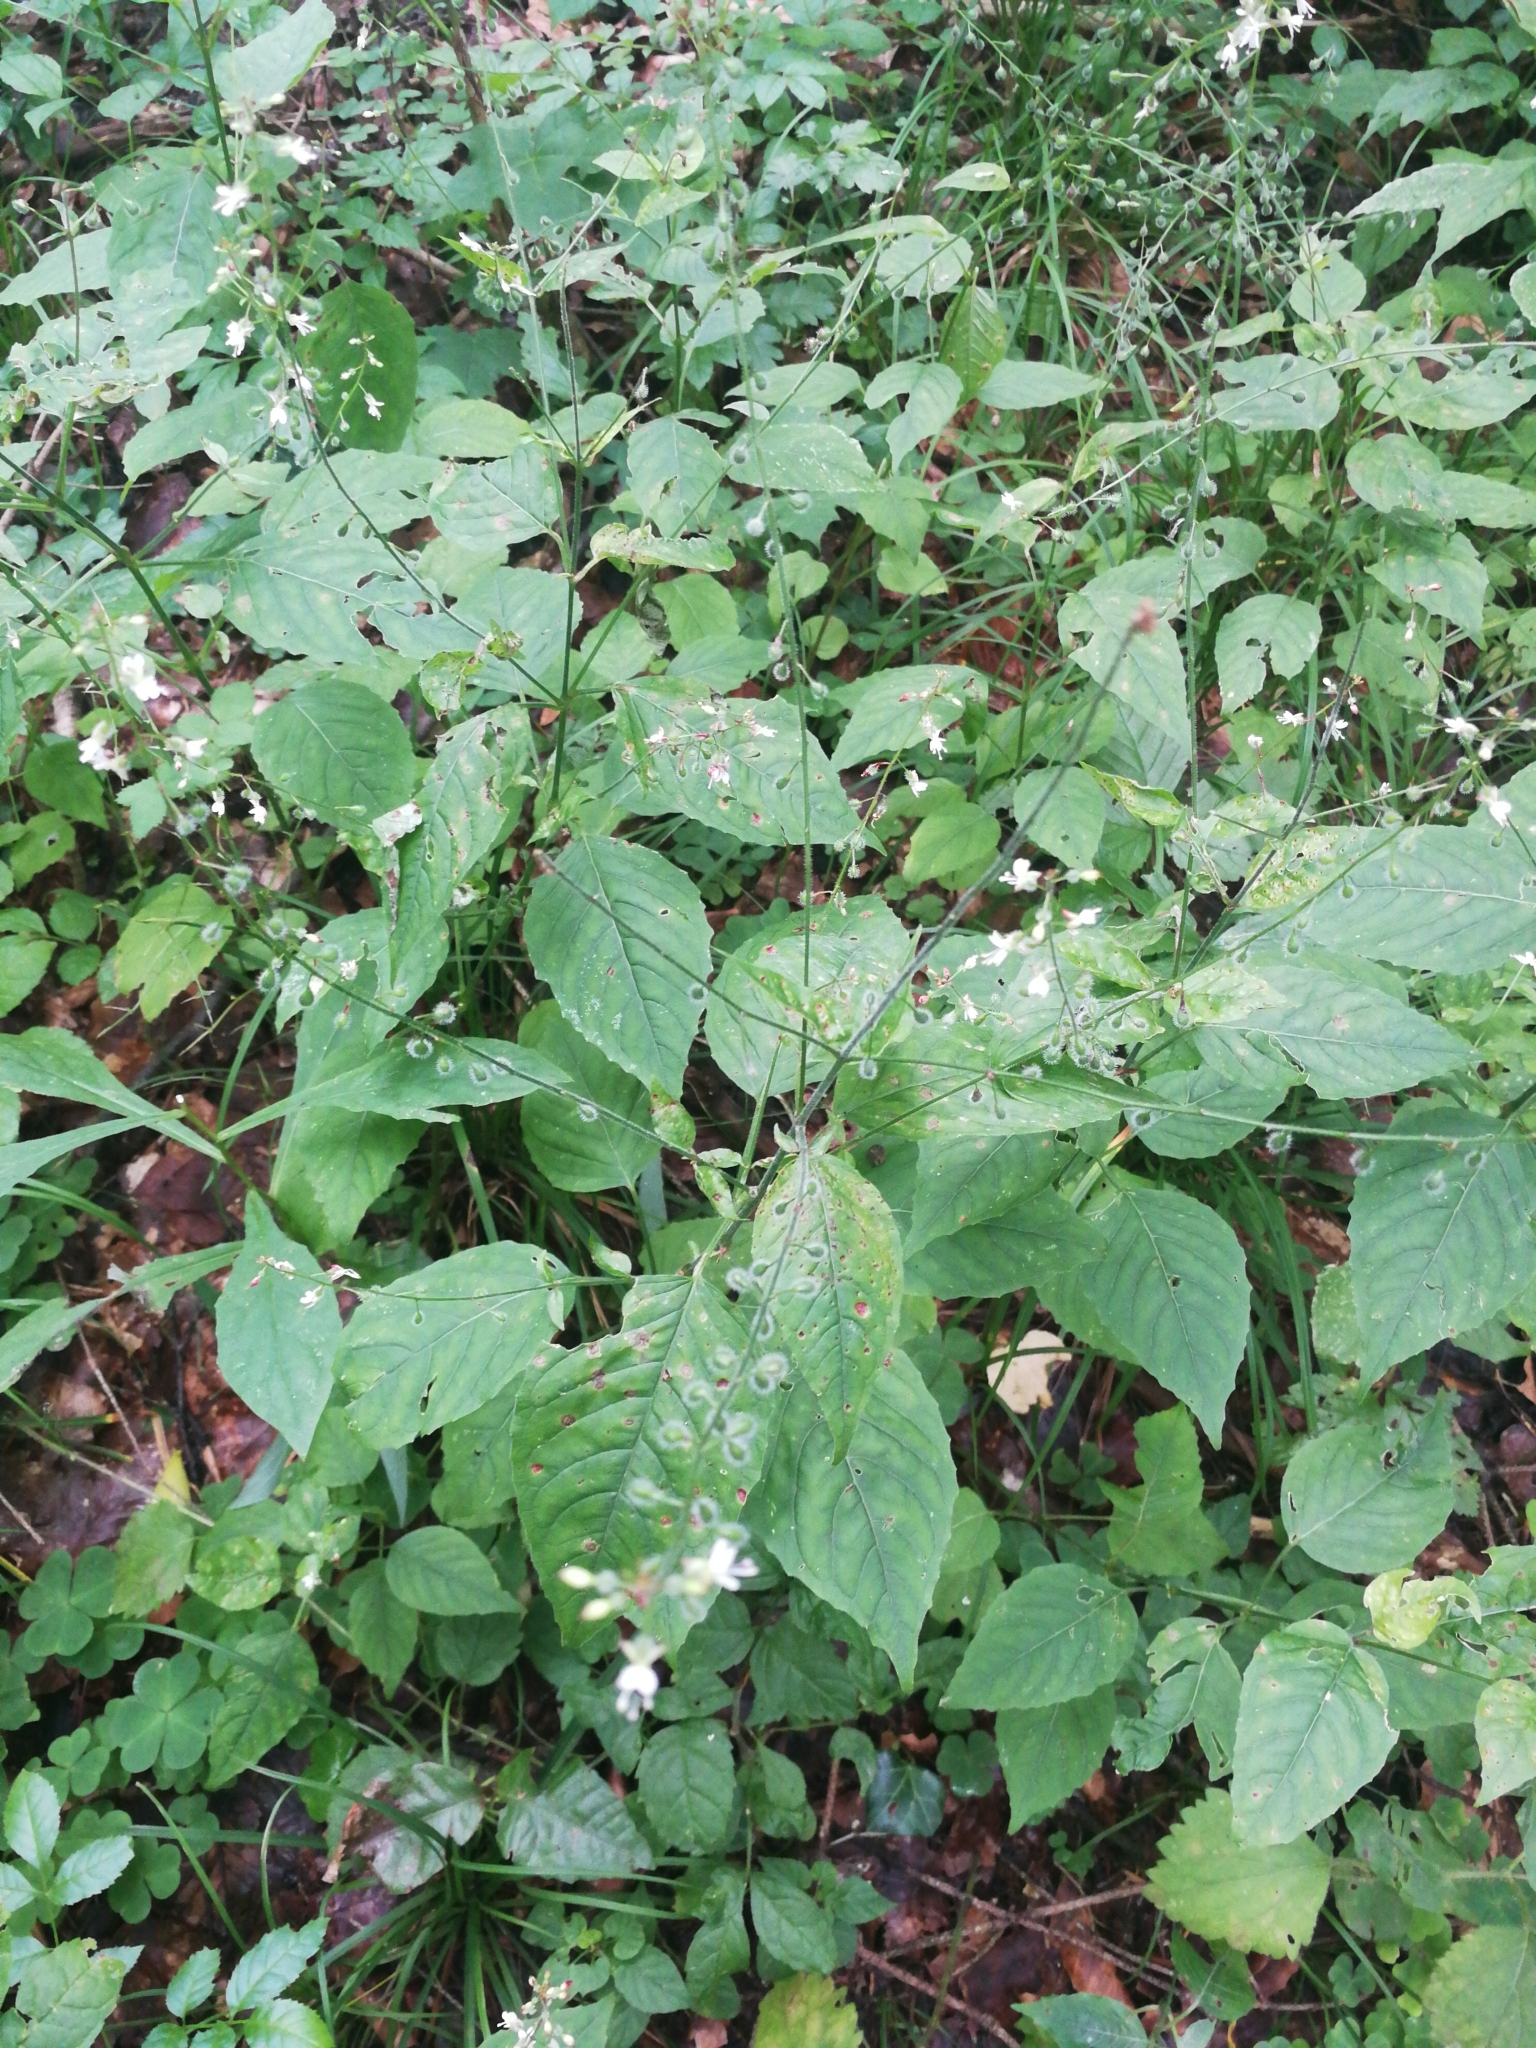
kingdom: Plantae
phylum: Tracheophyta
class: Magnoliopsida
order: Myrtales
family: Onagraceae
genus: Circaea
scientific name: Circaea lutetiana
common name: Enchanter's-nightshade
